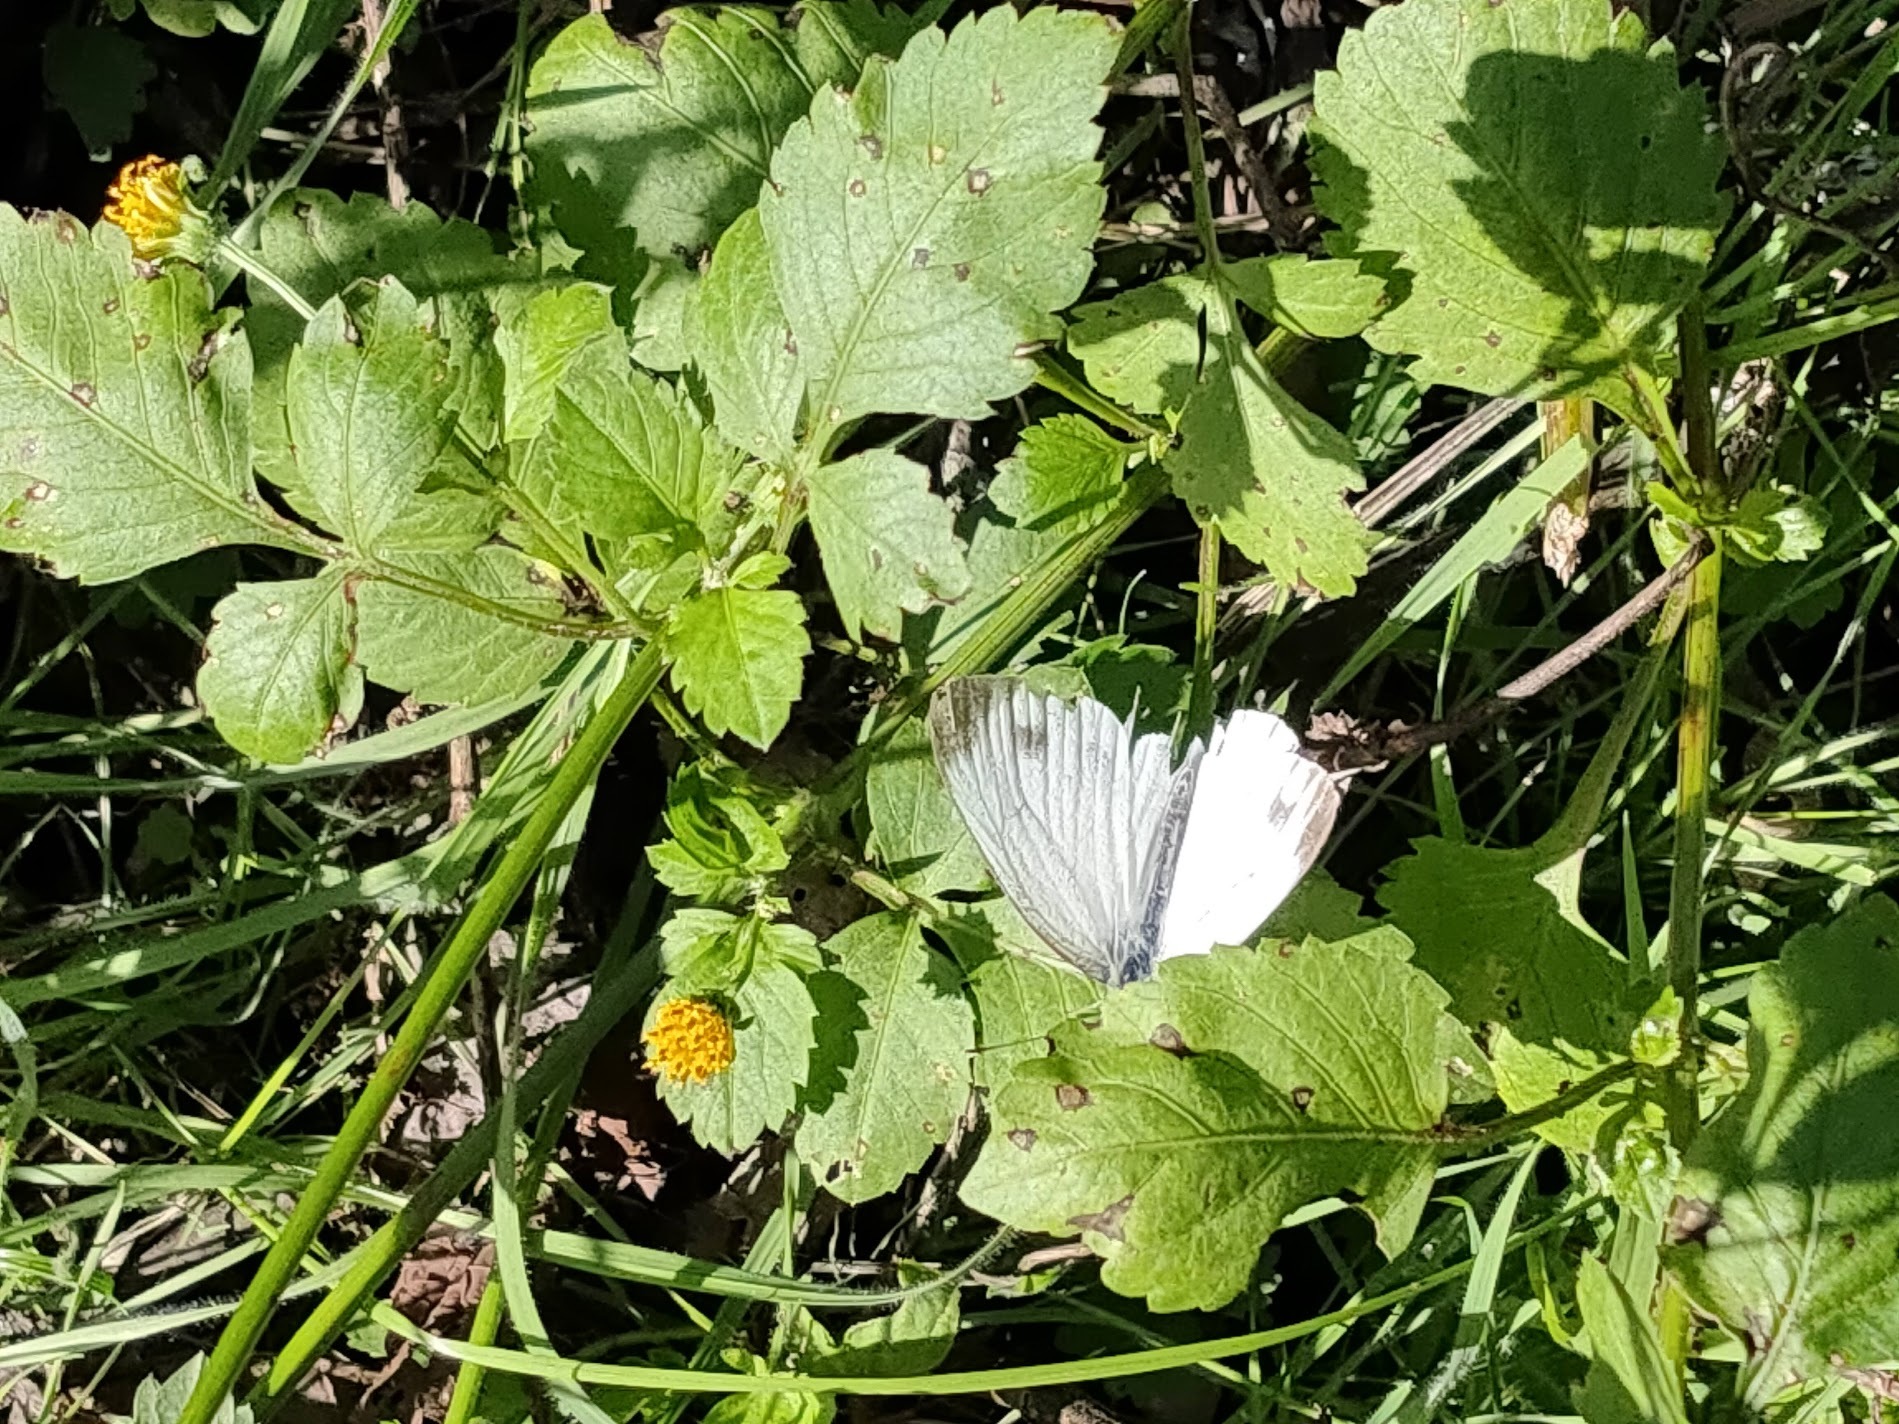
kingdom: Animalia
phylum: Arthropoda
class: Insecta
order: Lepidoptera
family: Pieridae
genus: Pieris
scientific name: Pieris melete
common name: Asian green-veined white
